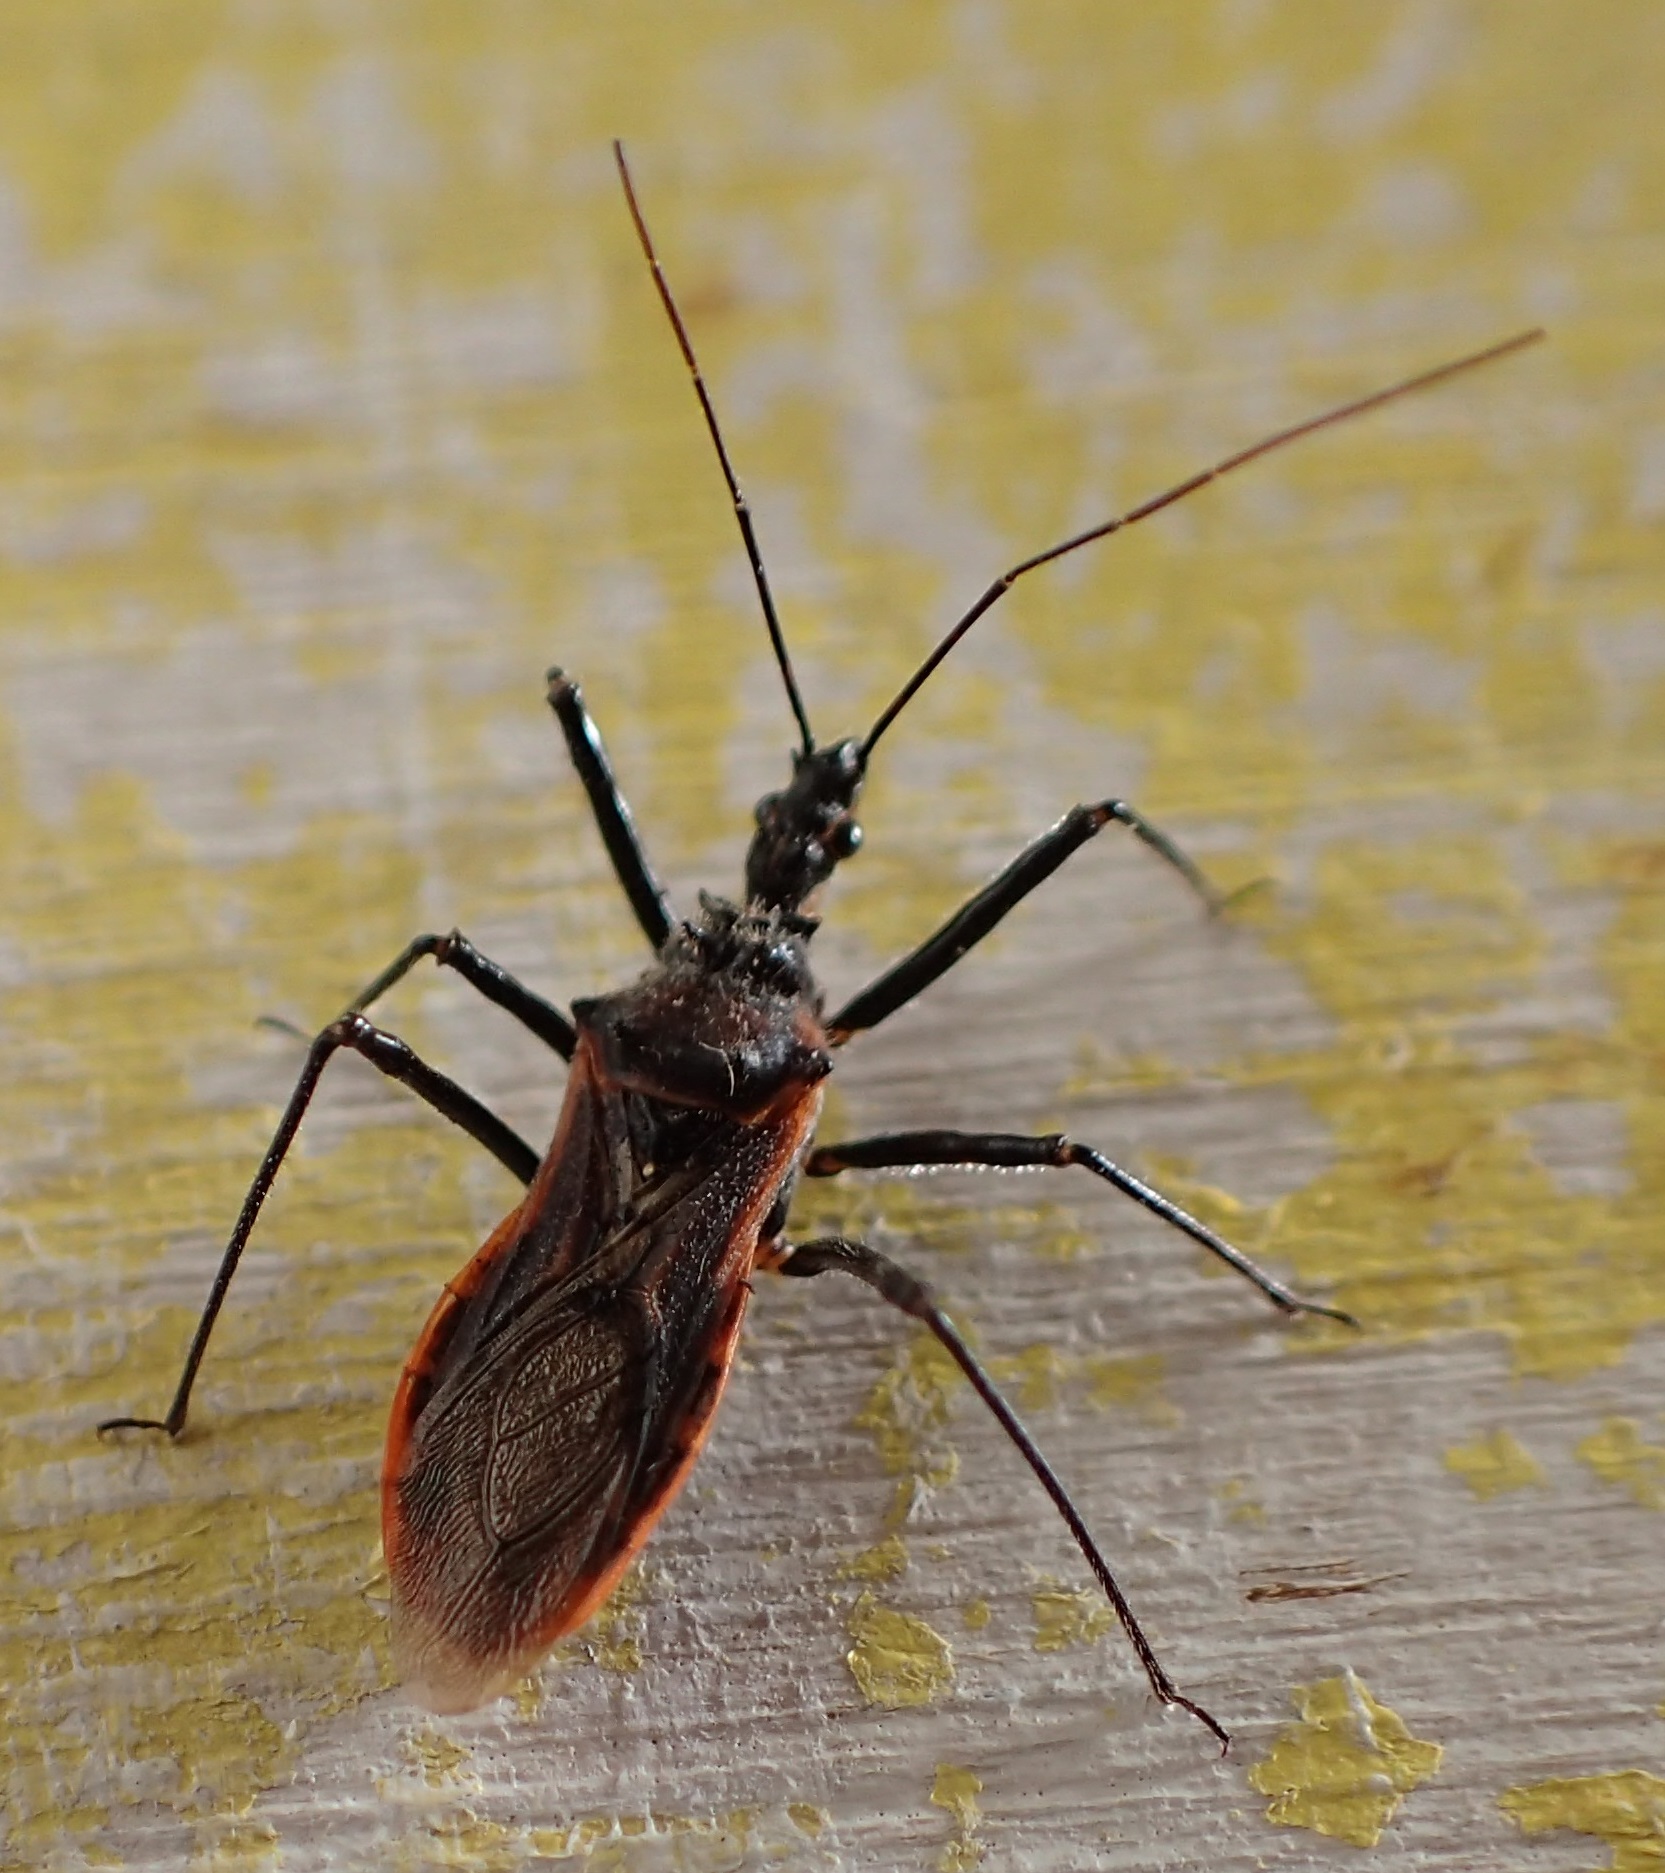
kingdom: Animalia
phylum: Arthropoda
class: Insecta
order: Hemiptera
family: Reduviidae
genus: Gminatus
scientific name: Gminatus australis
